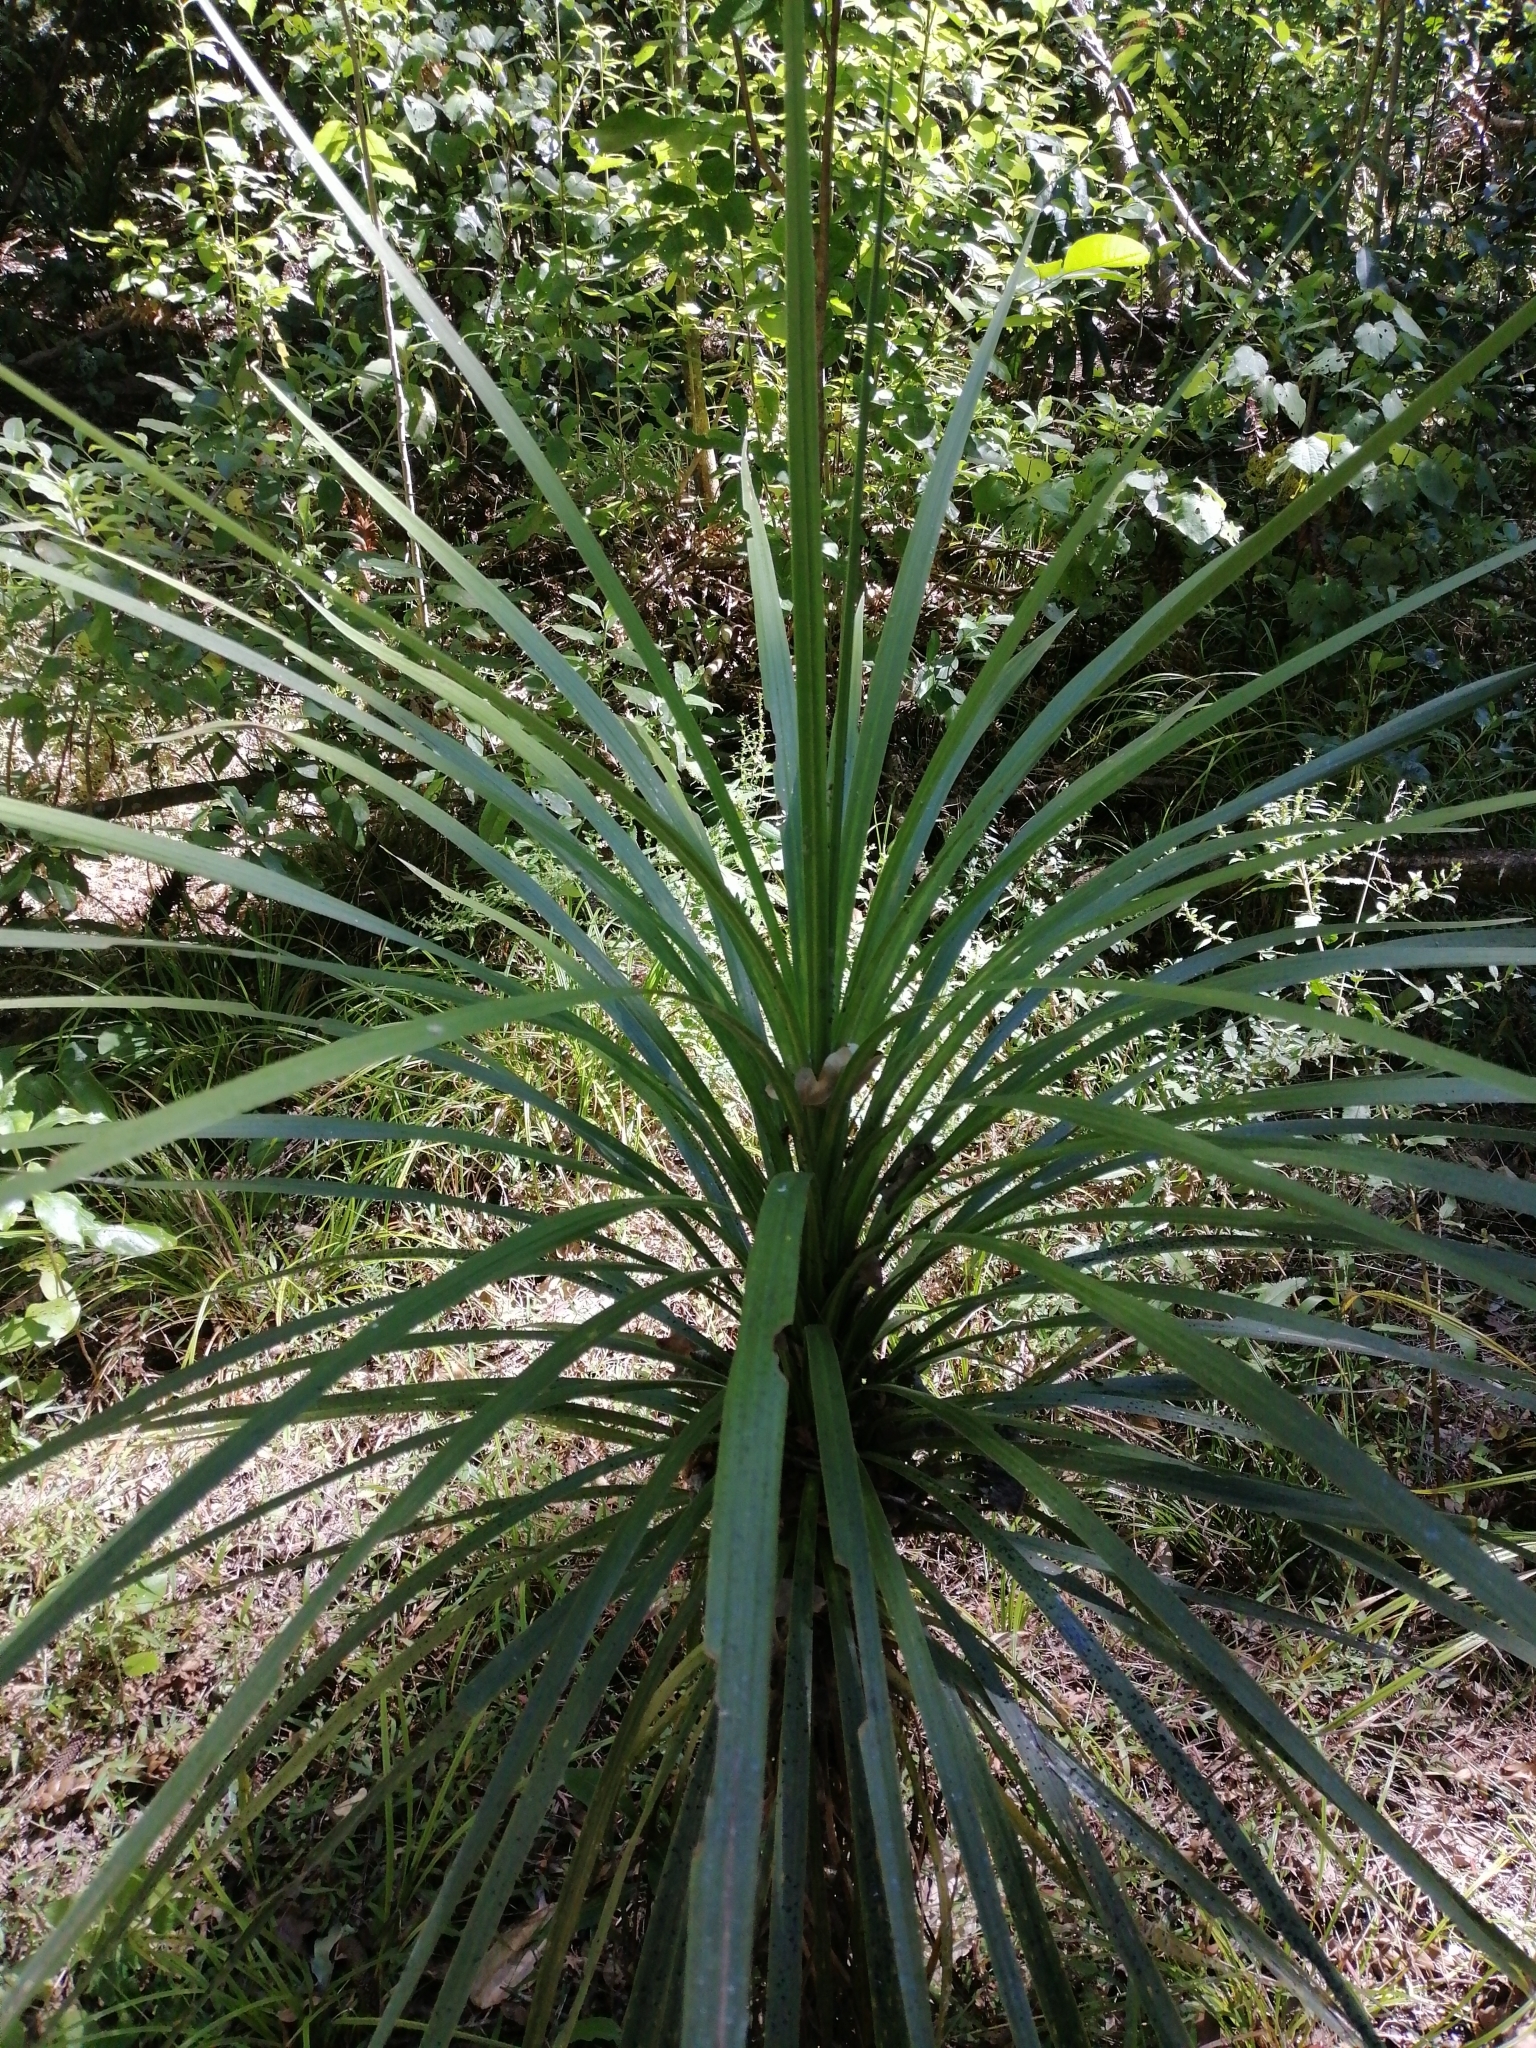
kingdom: Plantae
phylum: Tracheophyta
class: Liliopsida
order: Asparagales
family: Asparagaceae
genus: Cordyline
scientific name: Cordyline australis
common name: Cabbage-palm
